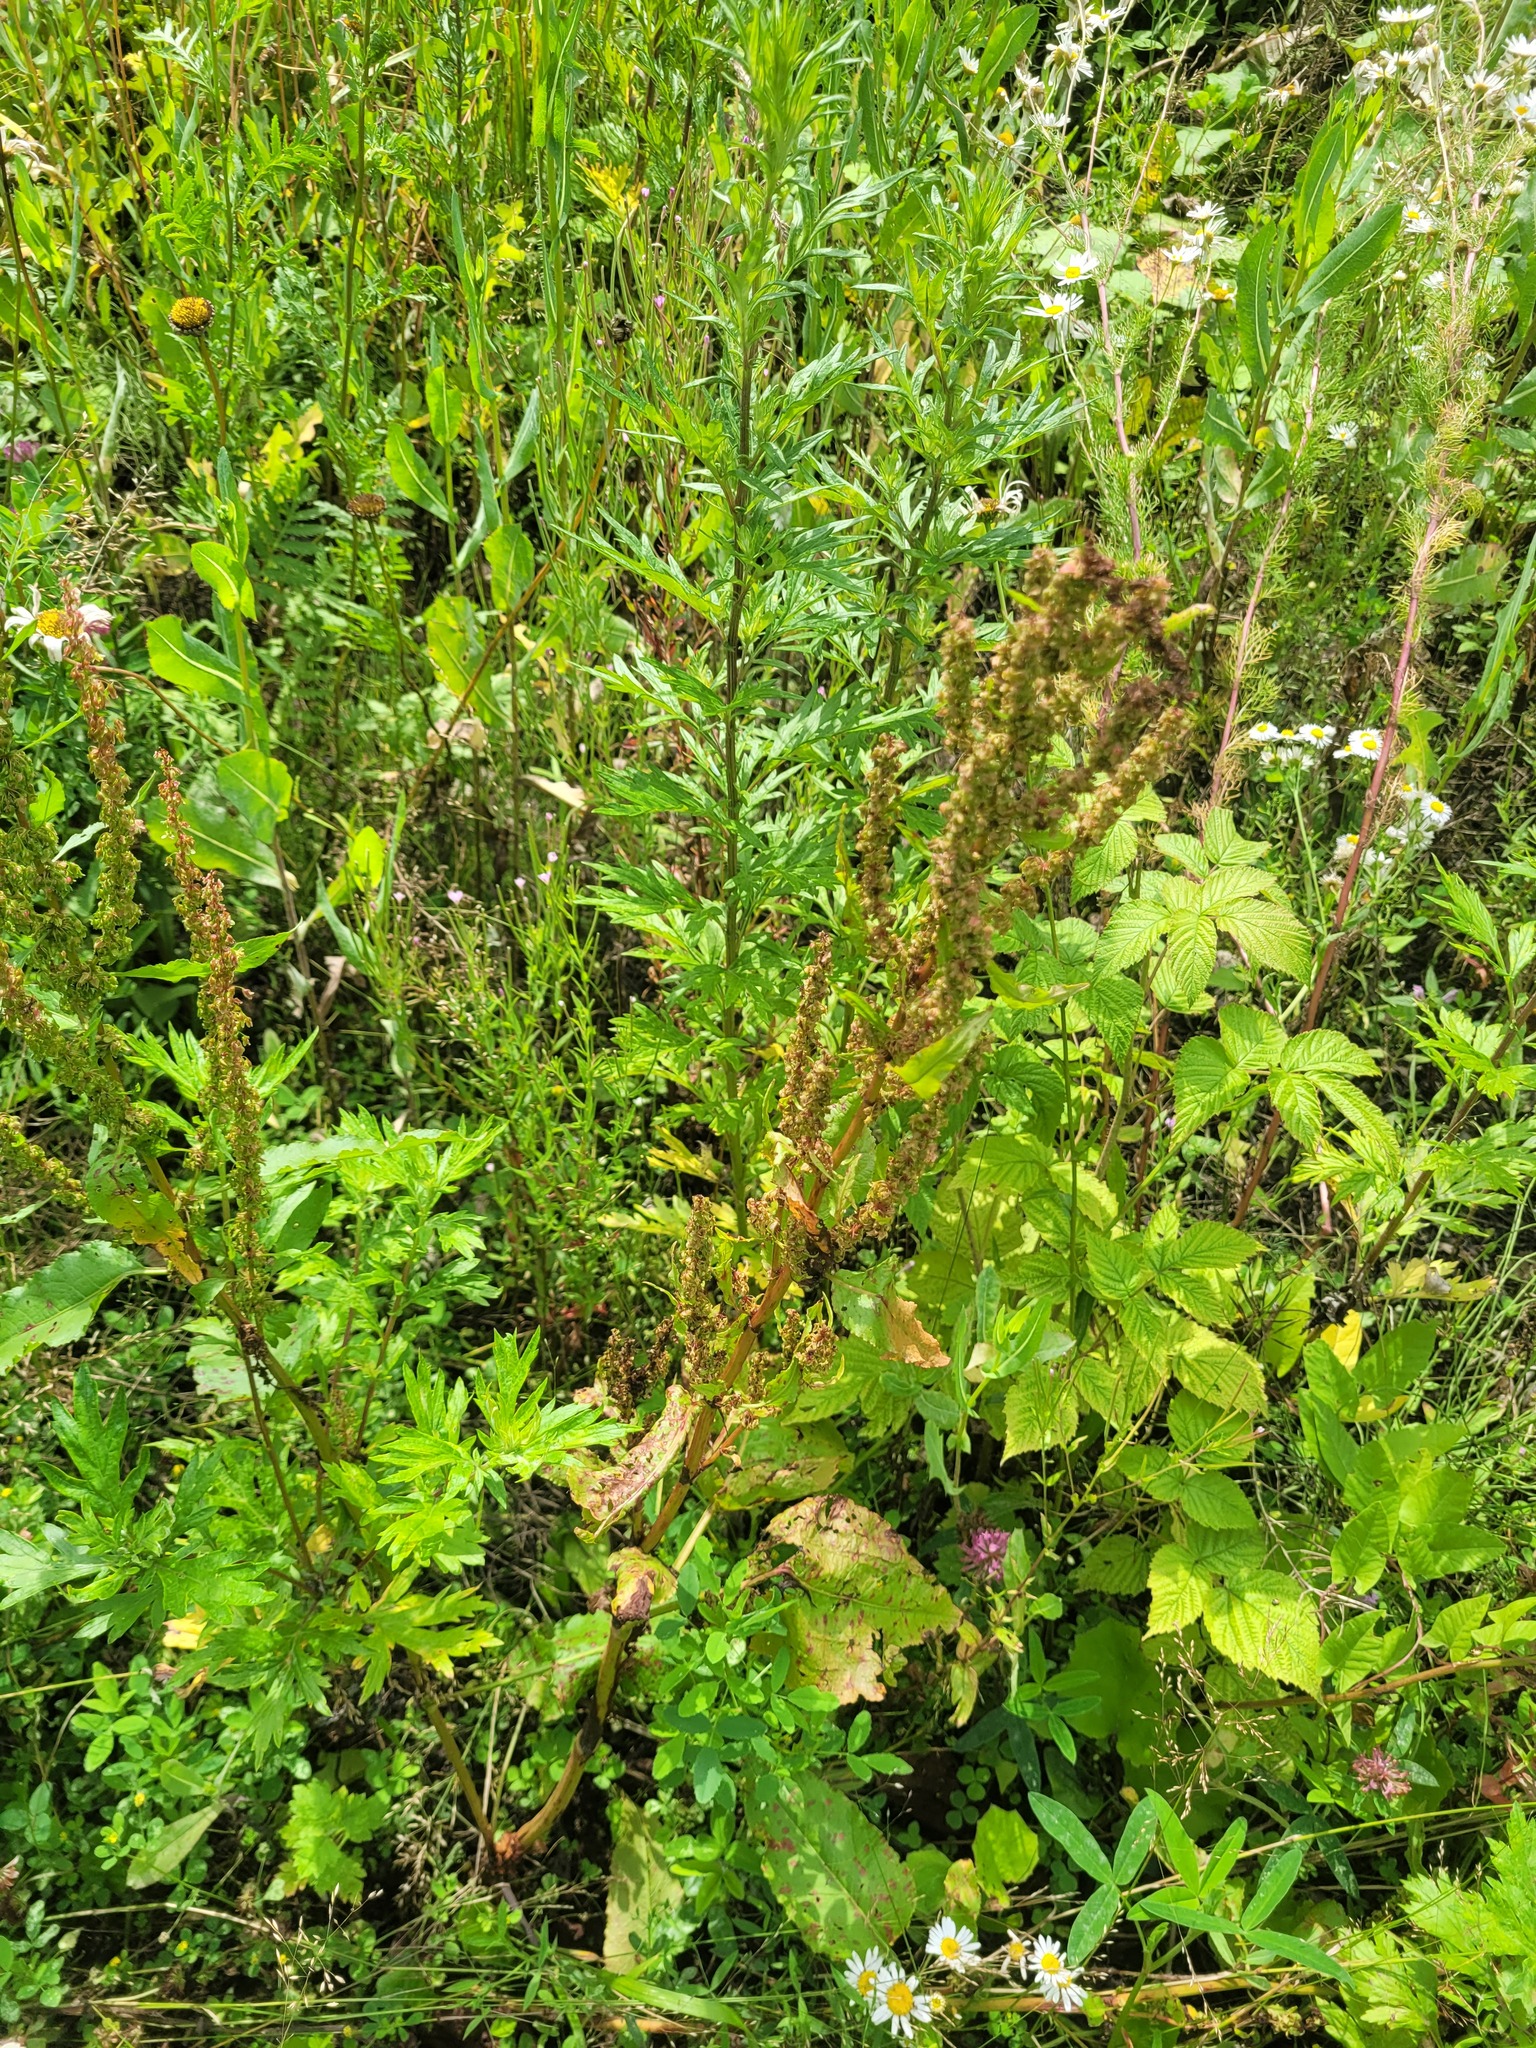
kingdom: Plantae
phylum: Tracheophyta
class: Magnoliopsida
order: Caryophyllales
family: Polygonaceae
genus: Rumex
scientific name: Rumex obtusifolius
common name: Bitter dock
